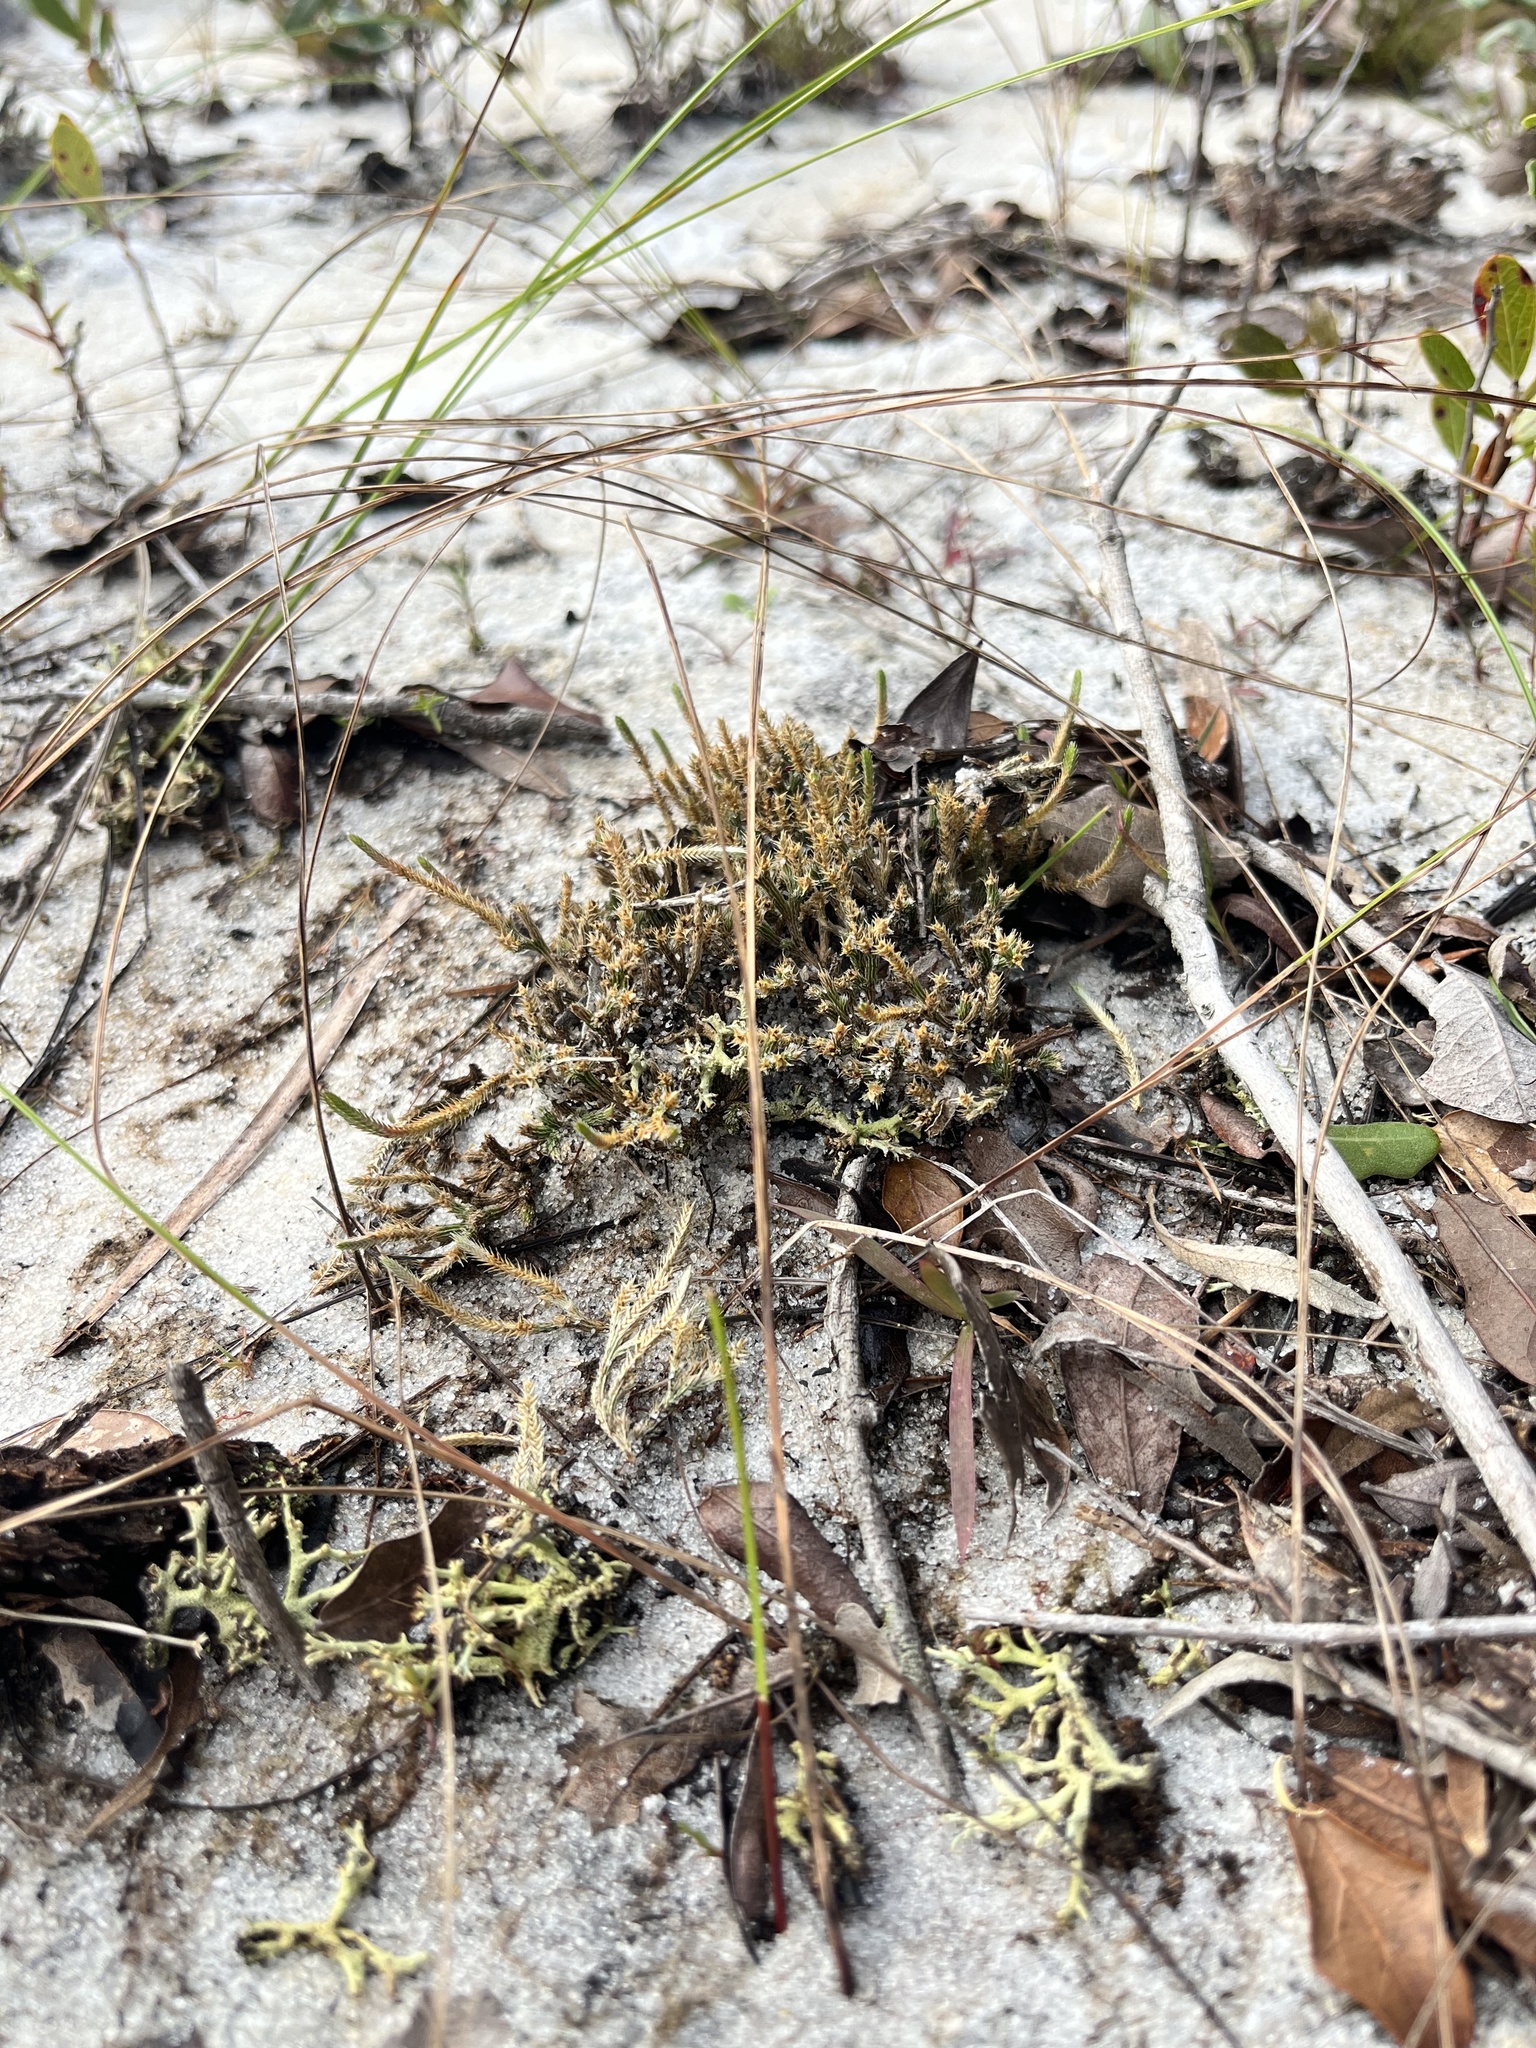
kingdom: Plantae
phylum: Tracheophyta
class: Lycopodiopsida
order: Selaginellales
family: Selaginellaceae
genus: Selaginella
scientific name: Selaginella arenicola
